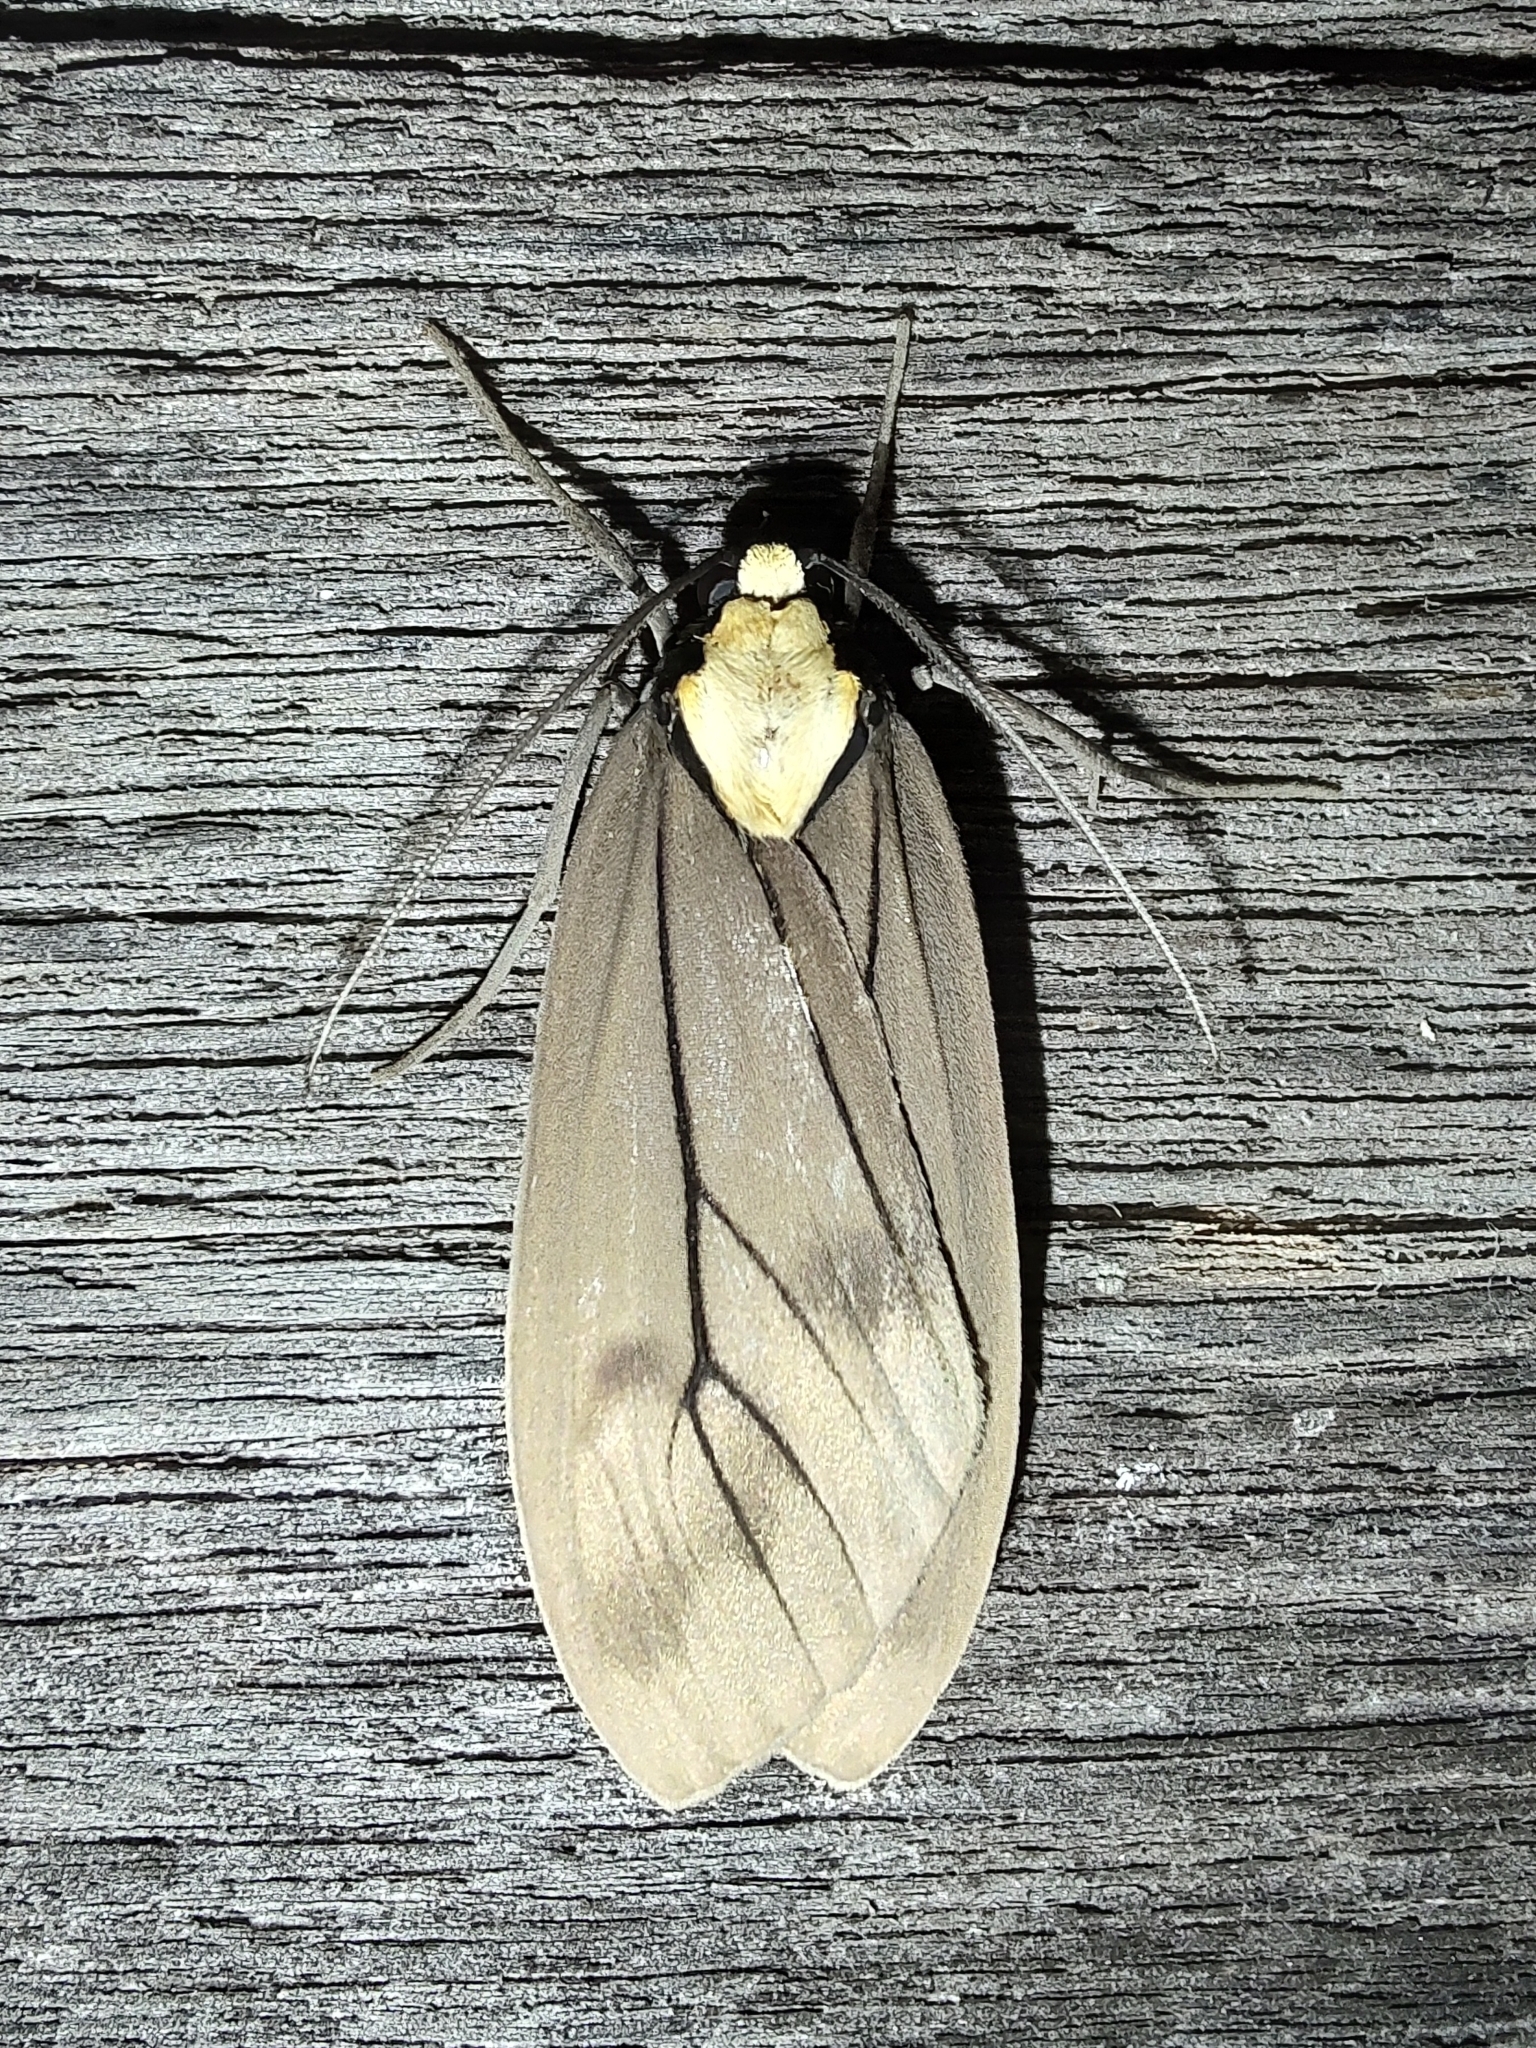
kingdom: Animalia
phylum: Arthropoda
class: Insecta
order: Lepidoptera
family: Erebidae
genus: Opharus
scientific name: Opharus basalis
